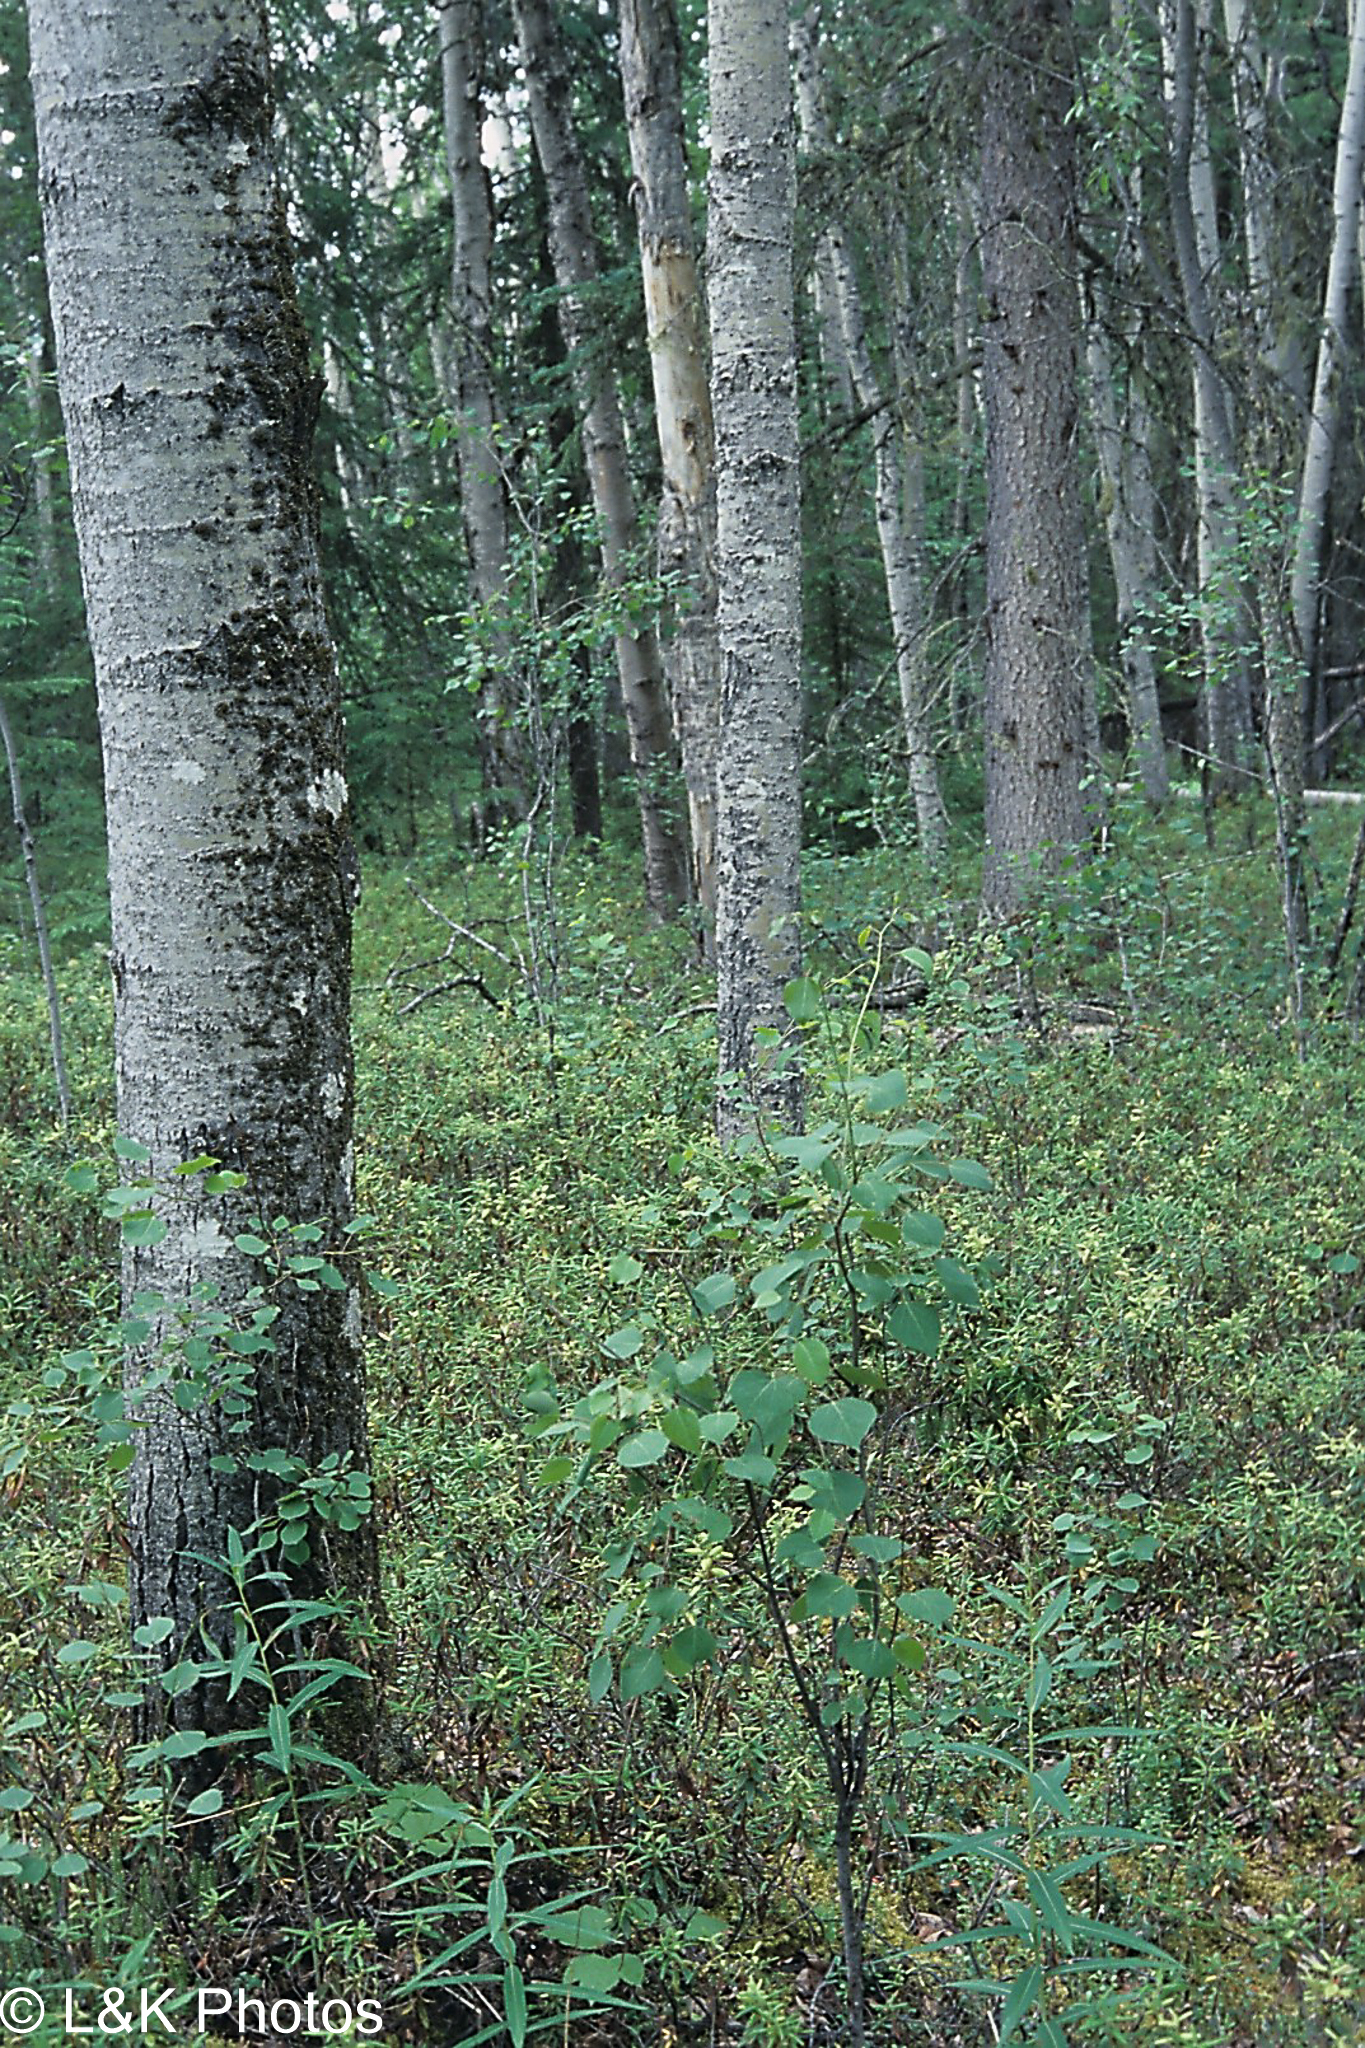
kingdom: Plantae
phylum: Tracheophyta
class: Magnoliopsida
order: Malpighiales
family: Salicaceae
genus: Populus
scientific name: Populus tremuloides
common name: Quaking aspen
